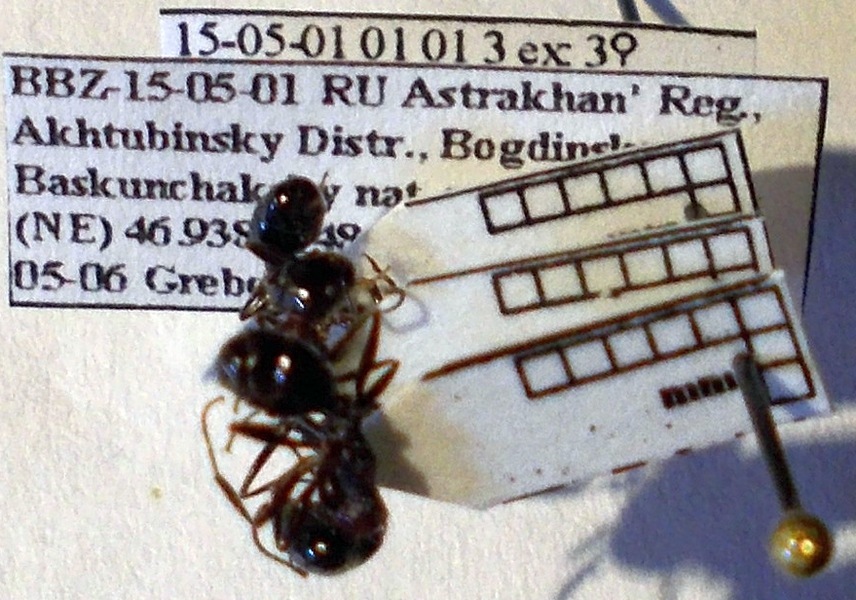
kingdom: Animalia
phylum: Arthropoda
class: Insecta
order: Hymenoptera
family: Formicidae
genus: Messor
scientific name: Messor denticulatus
